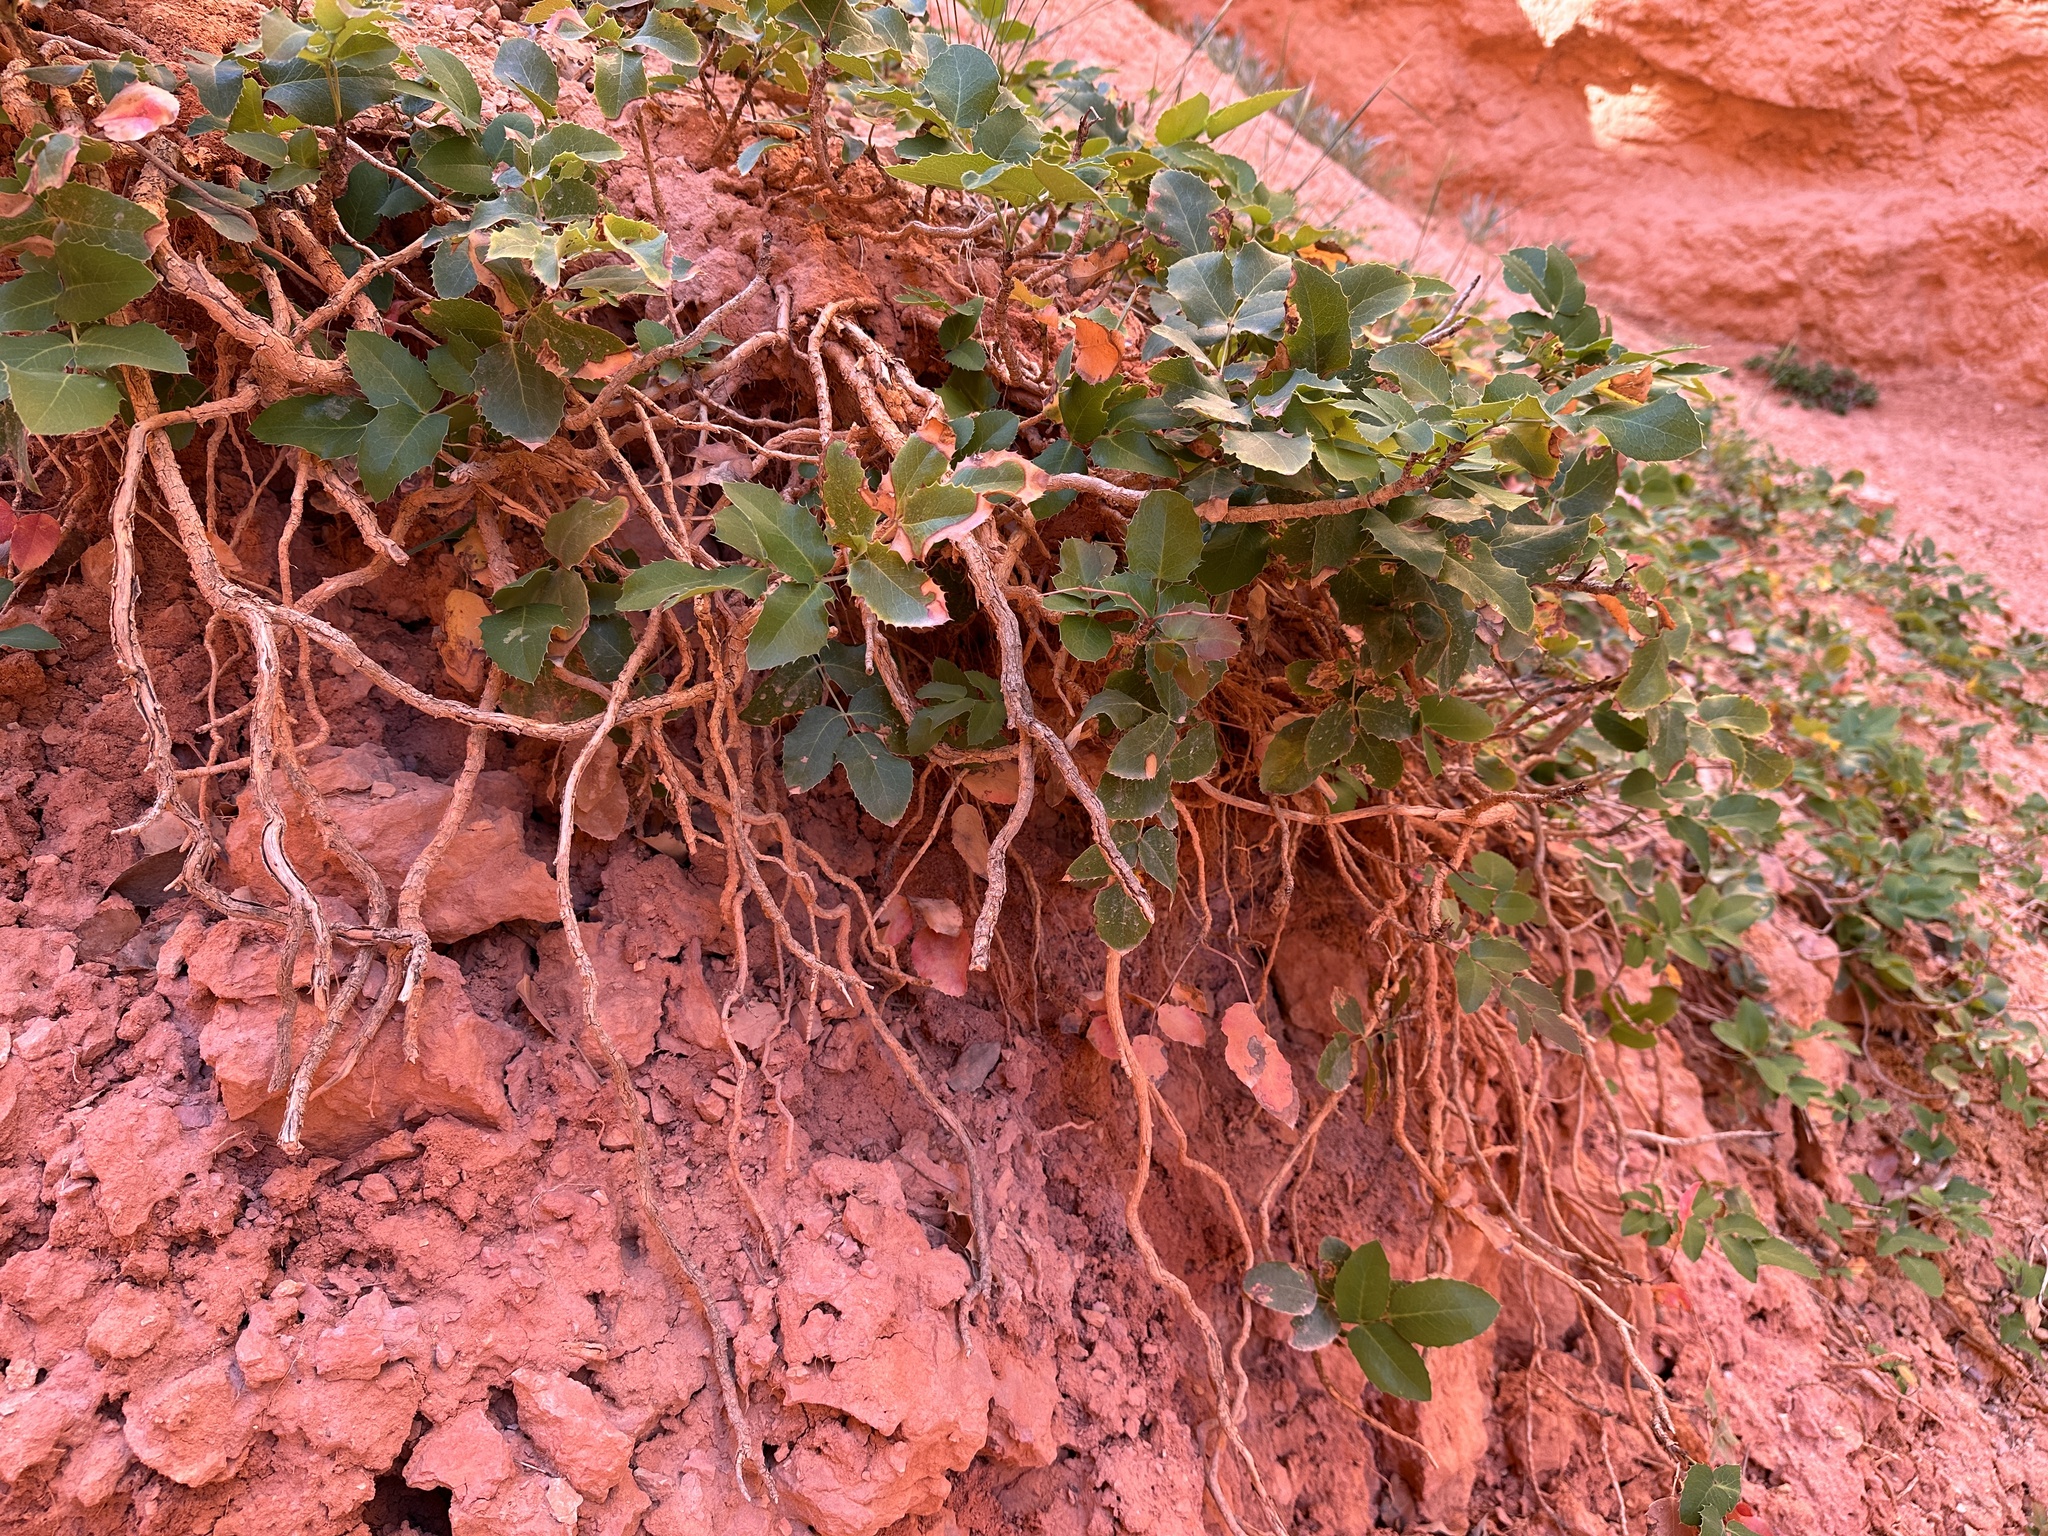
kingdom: Plantae
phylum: Tracheophyta
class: Magnoliopsida
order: Ranunculales
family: Berberidaceae
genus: Mahonia
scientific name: Mahonia repens
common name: Creeping oregon-grape
